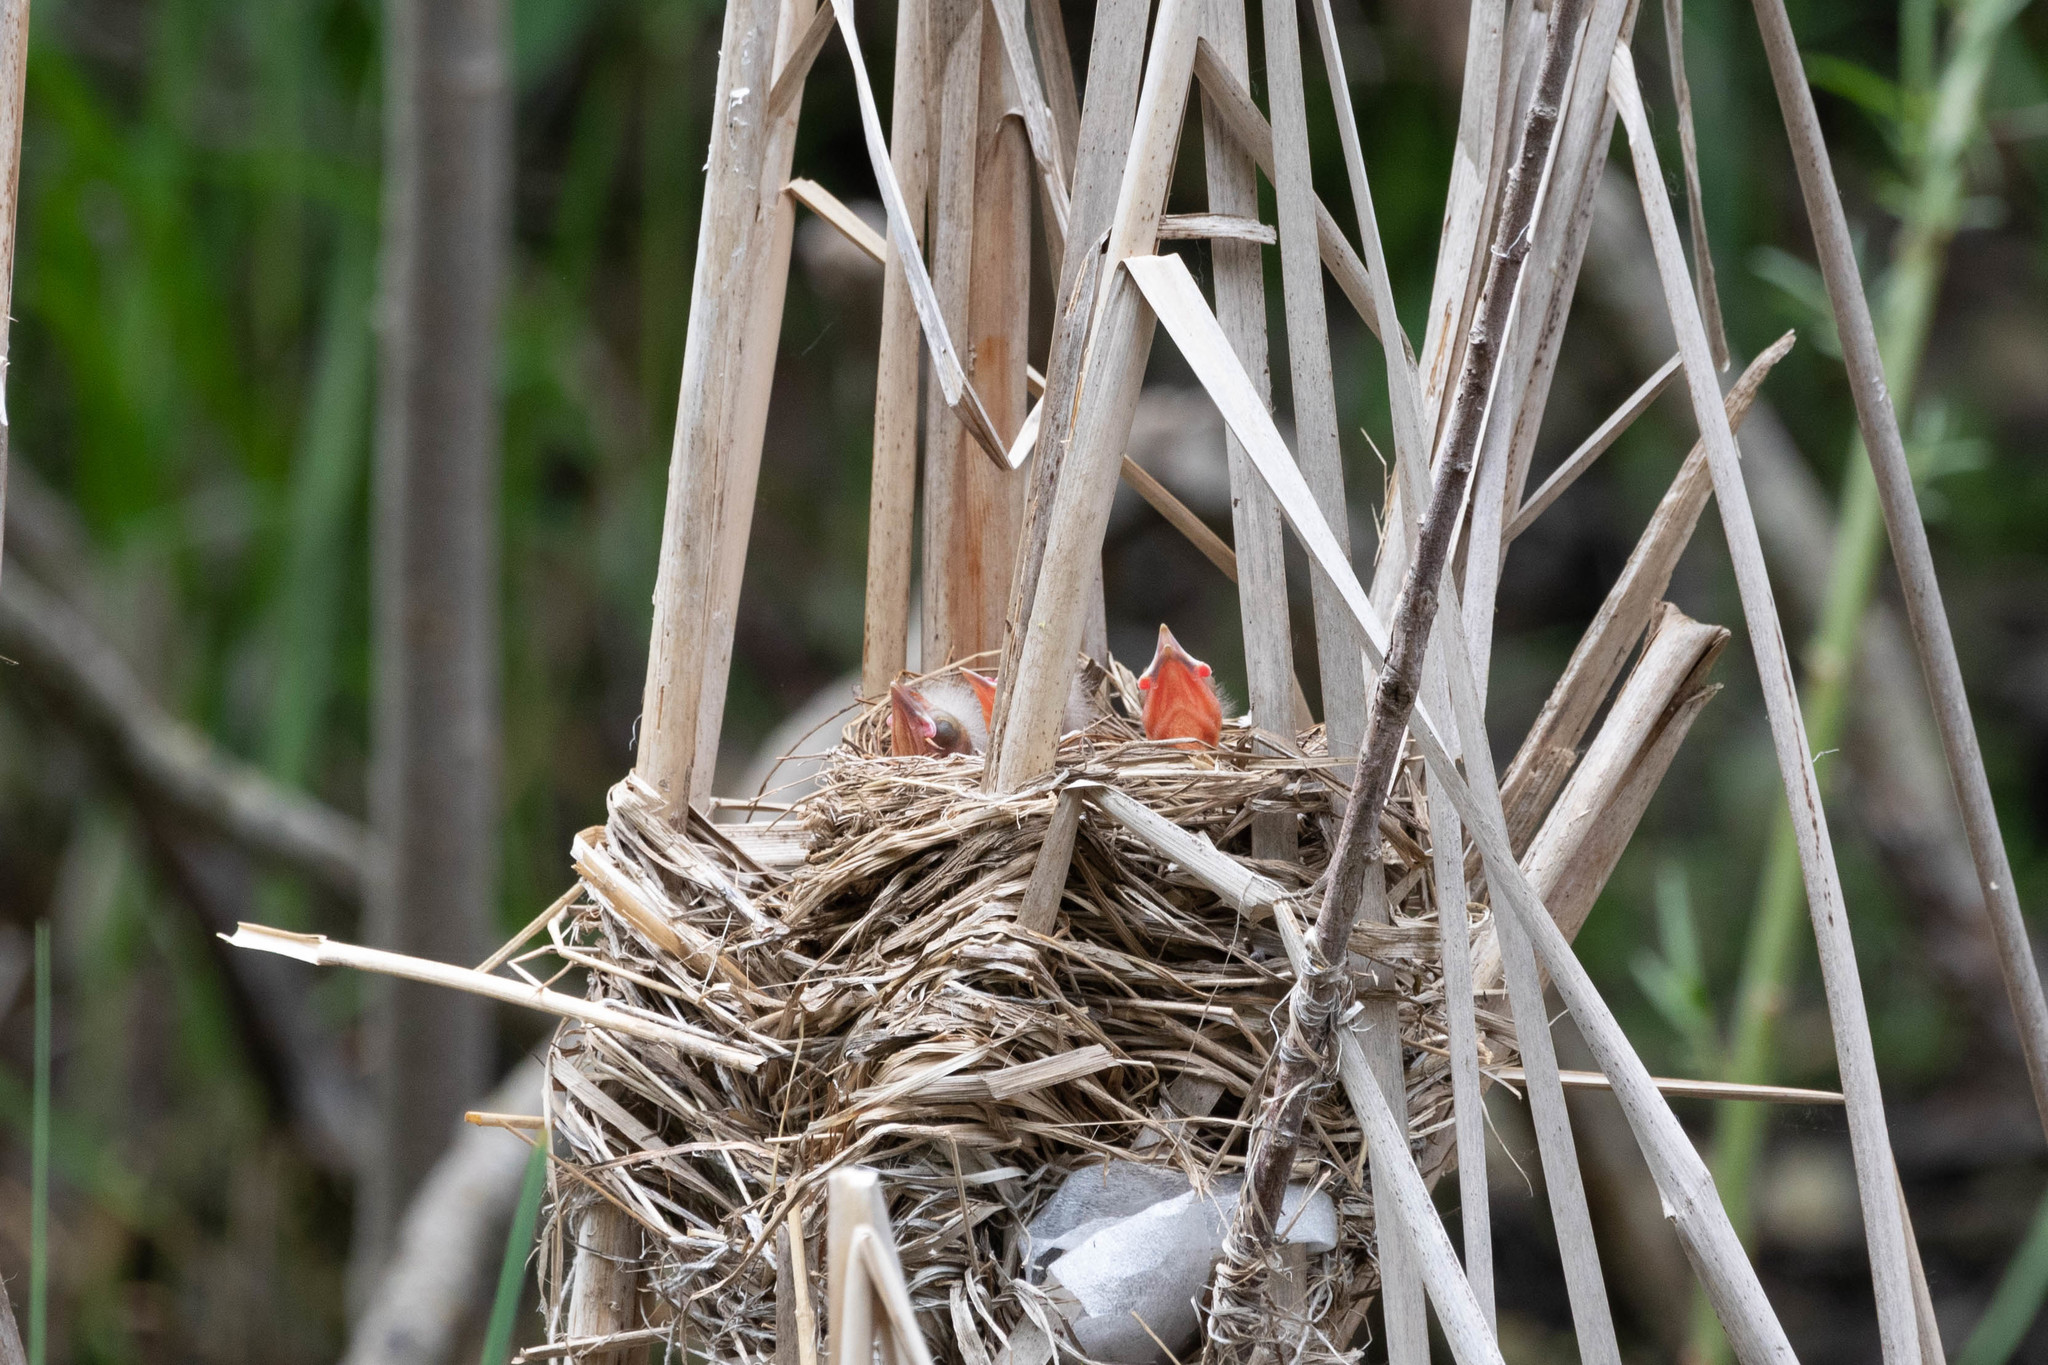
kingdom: Animalia
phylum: Chordata
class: Aves
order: Passeriformes
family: Icteridae
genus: Agelaius
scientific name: Agelaius phoeniceus
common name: Red-winged blackbird
